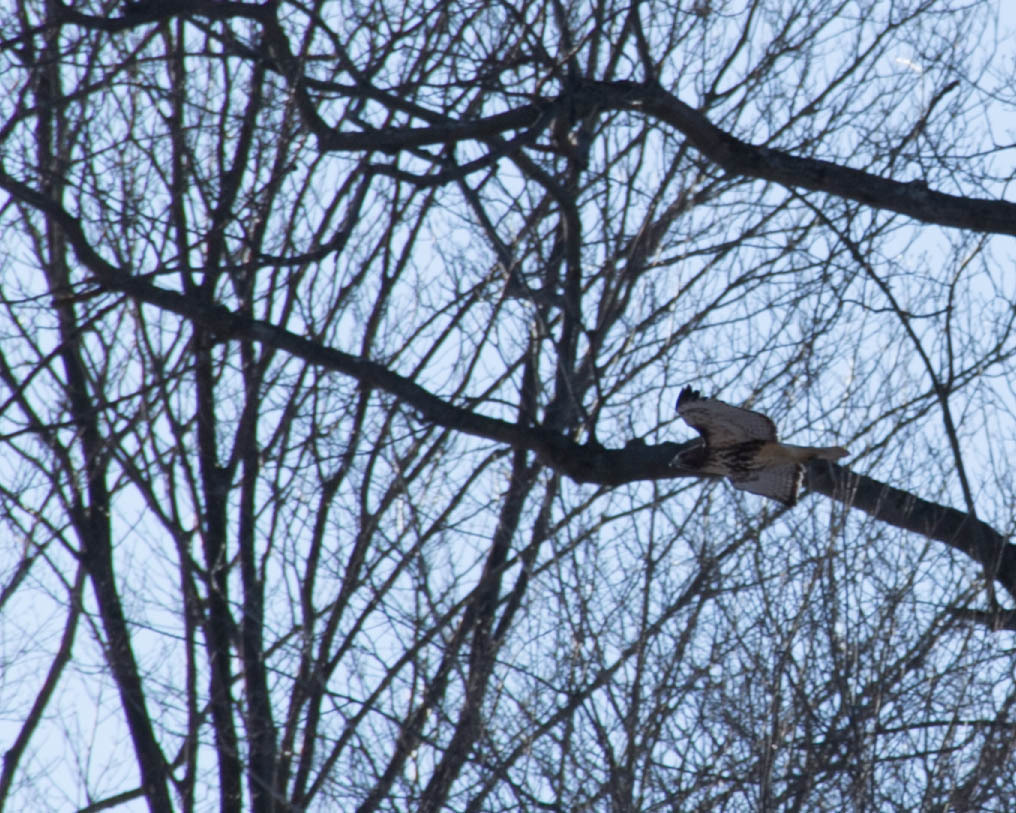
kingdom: Animalia
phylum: Chordata
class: Aves
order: Accipitriformes
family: Accipitridae
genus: Buteo
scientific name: Buteo jamaicensis
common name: Red-tailed hawk
